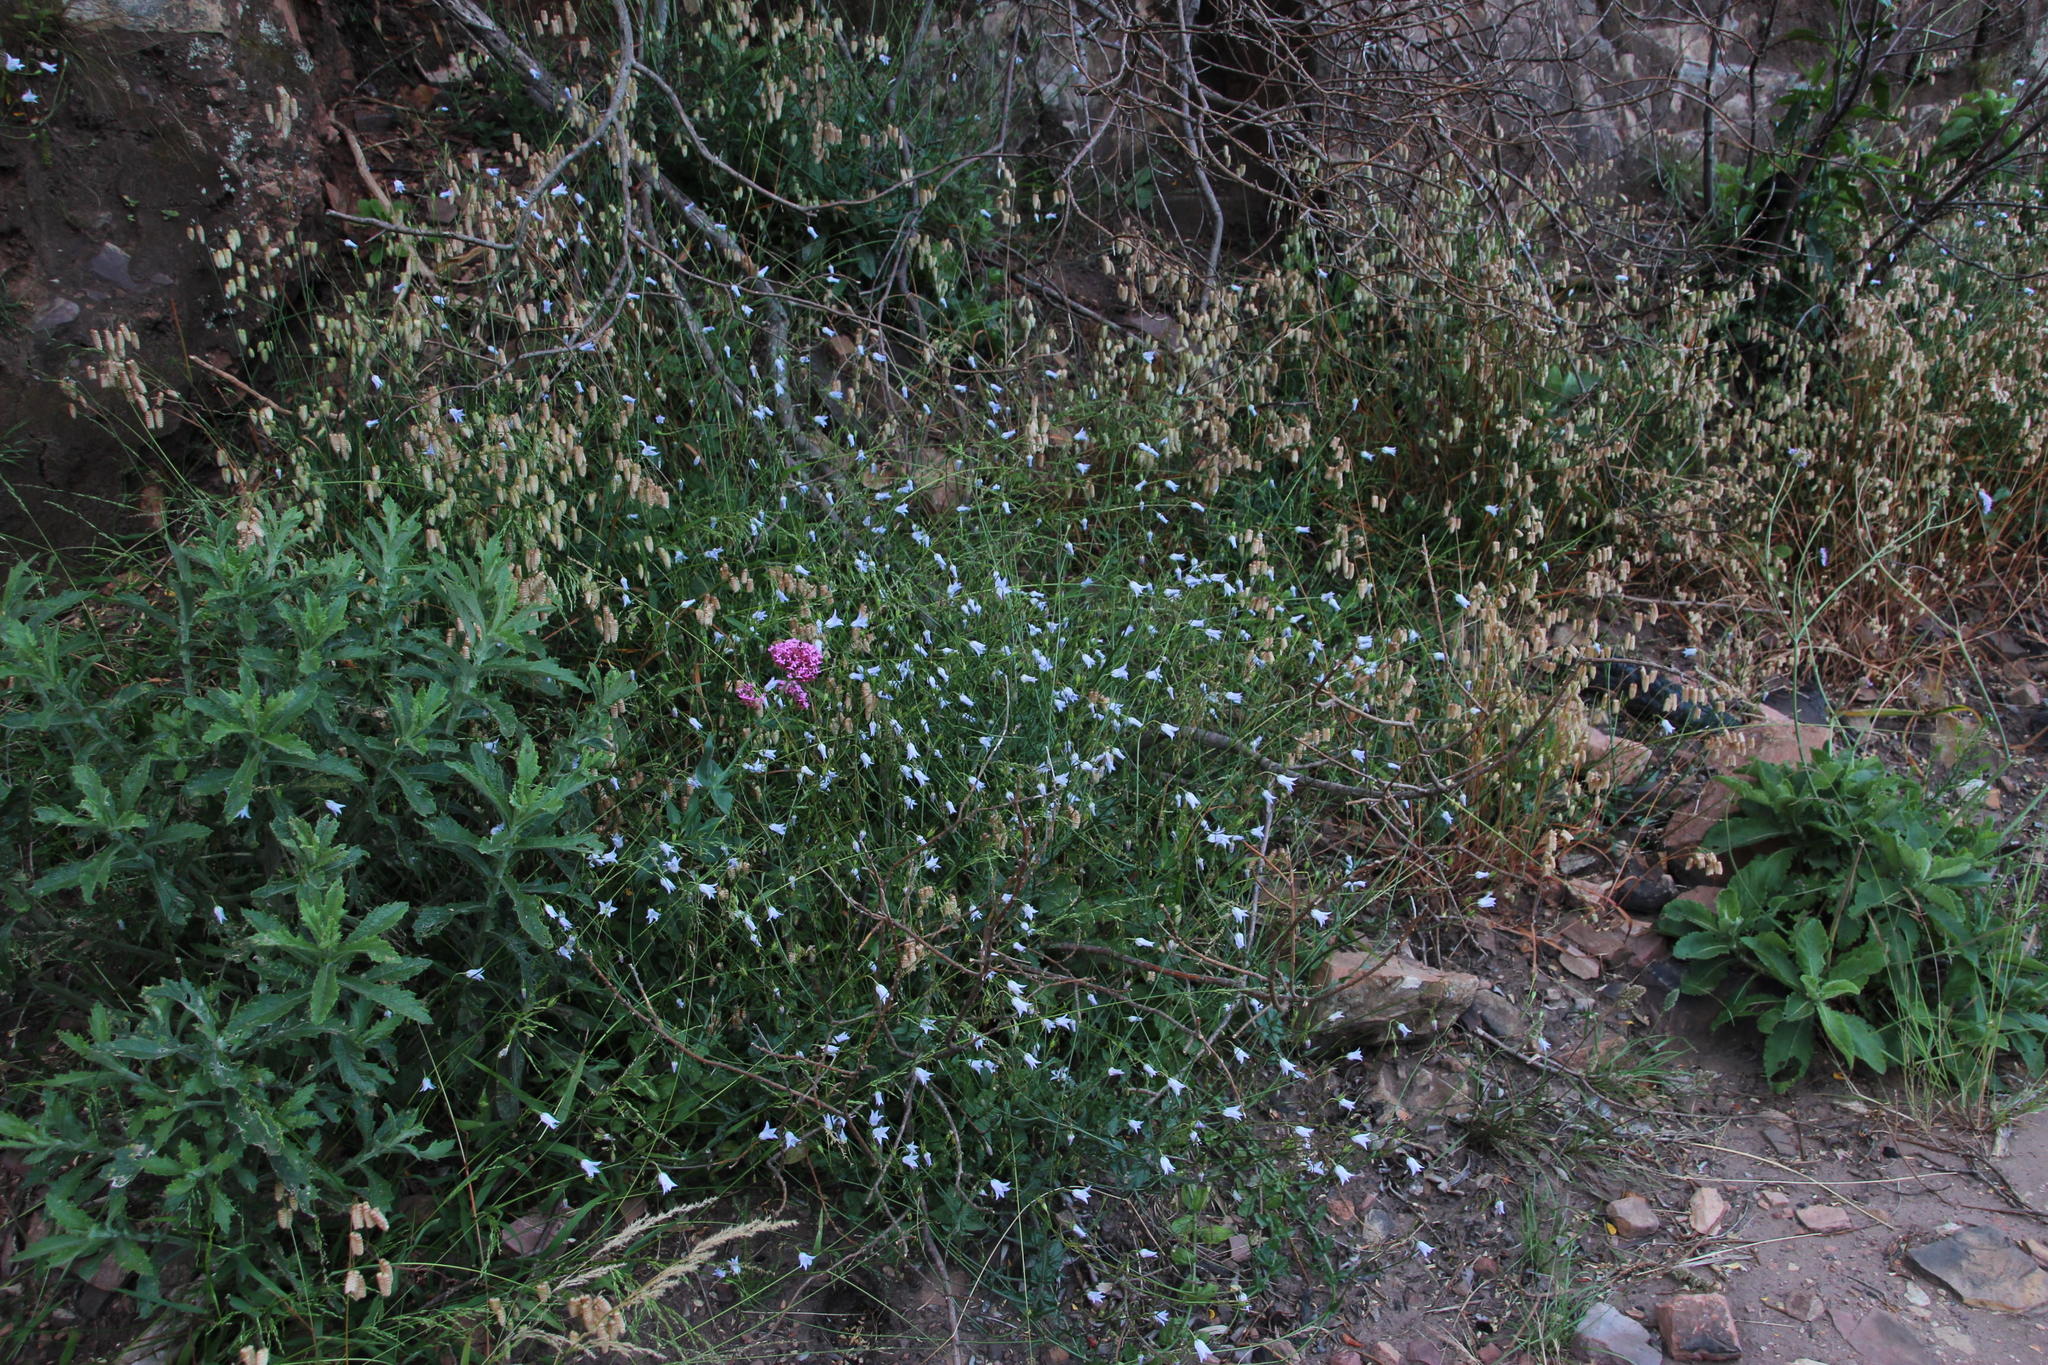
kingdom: Plantae
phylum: Tracheophyta
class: Magnoliopsida
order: Asterales
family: Campanulaceae
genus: Wahlenbergia
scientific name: Wahlenbergia obovata
